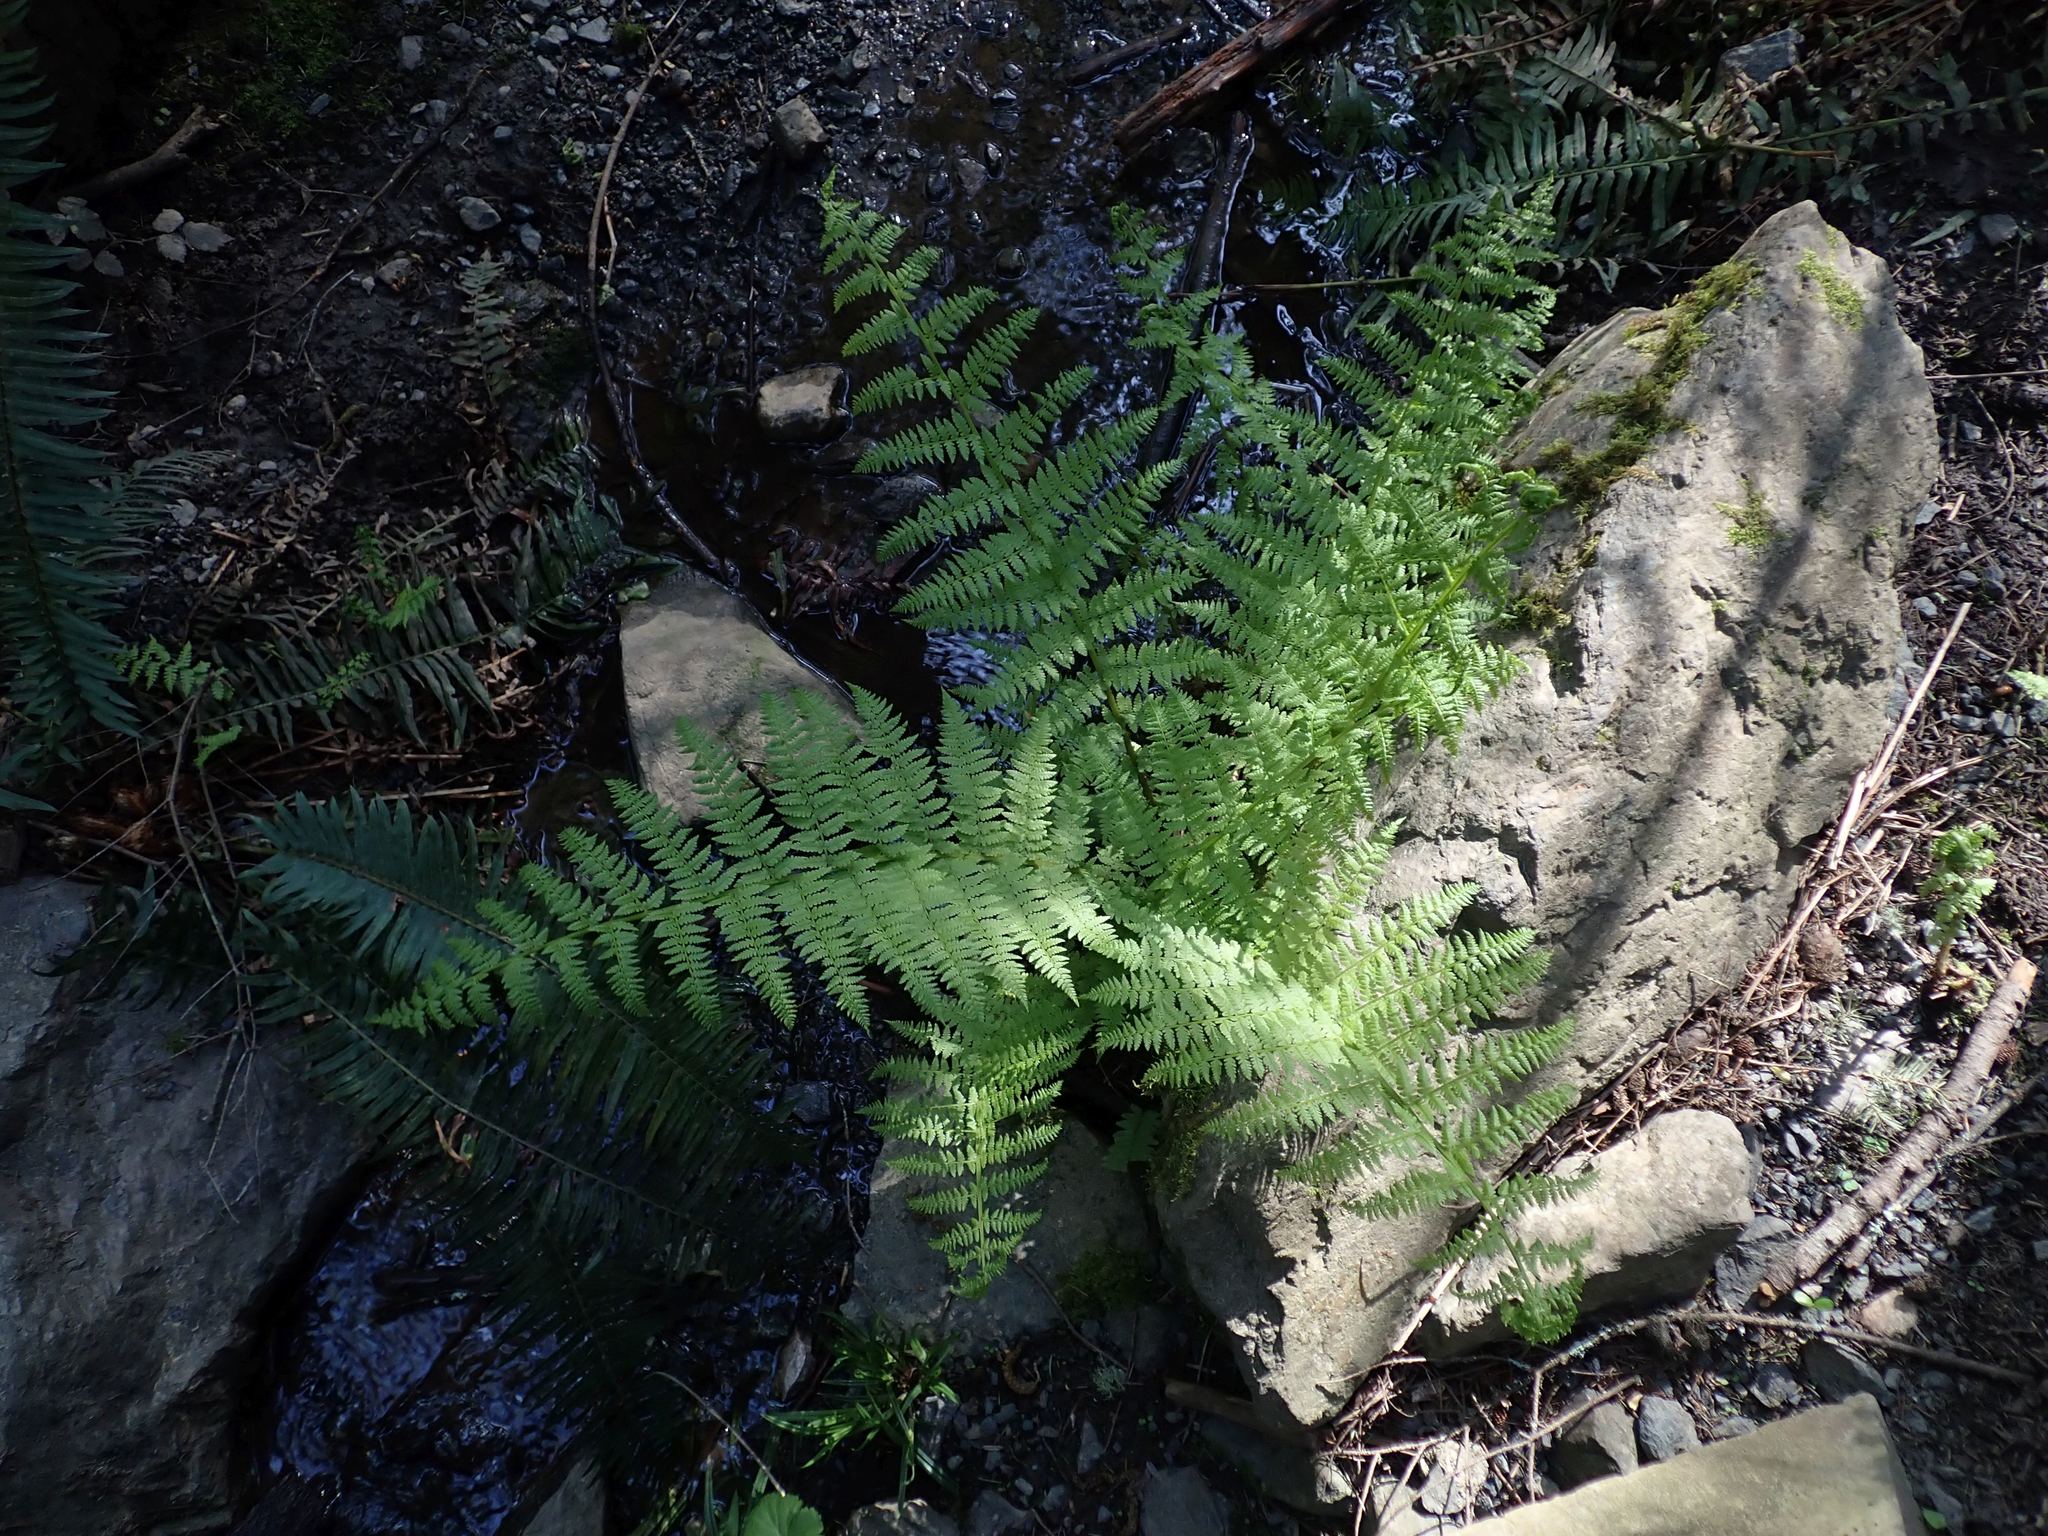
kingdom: Plantae
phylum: Tracheophyta
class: Polypodiopsida
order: Polypodiales
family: Athyriaceae
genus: Athyrium
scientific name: Athyrium filix-femina
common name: Lady fern
